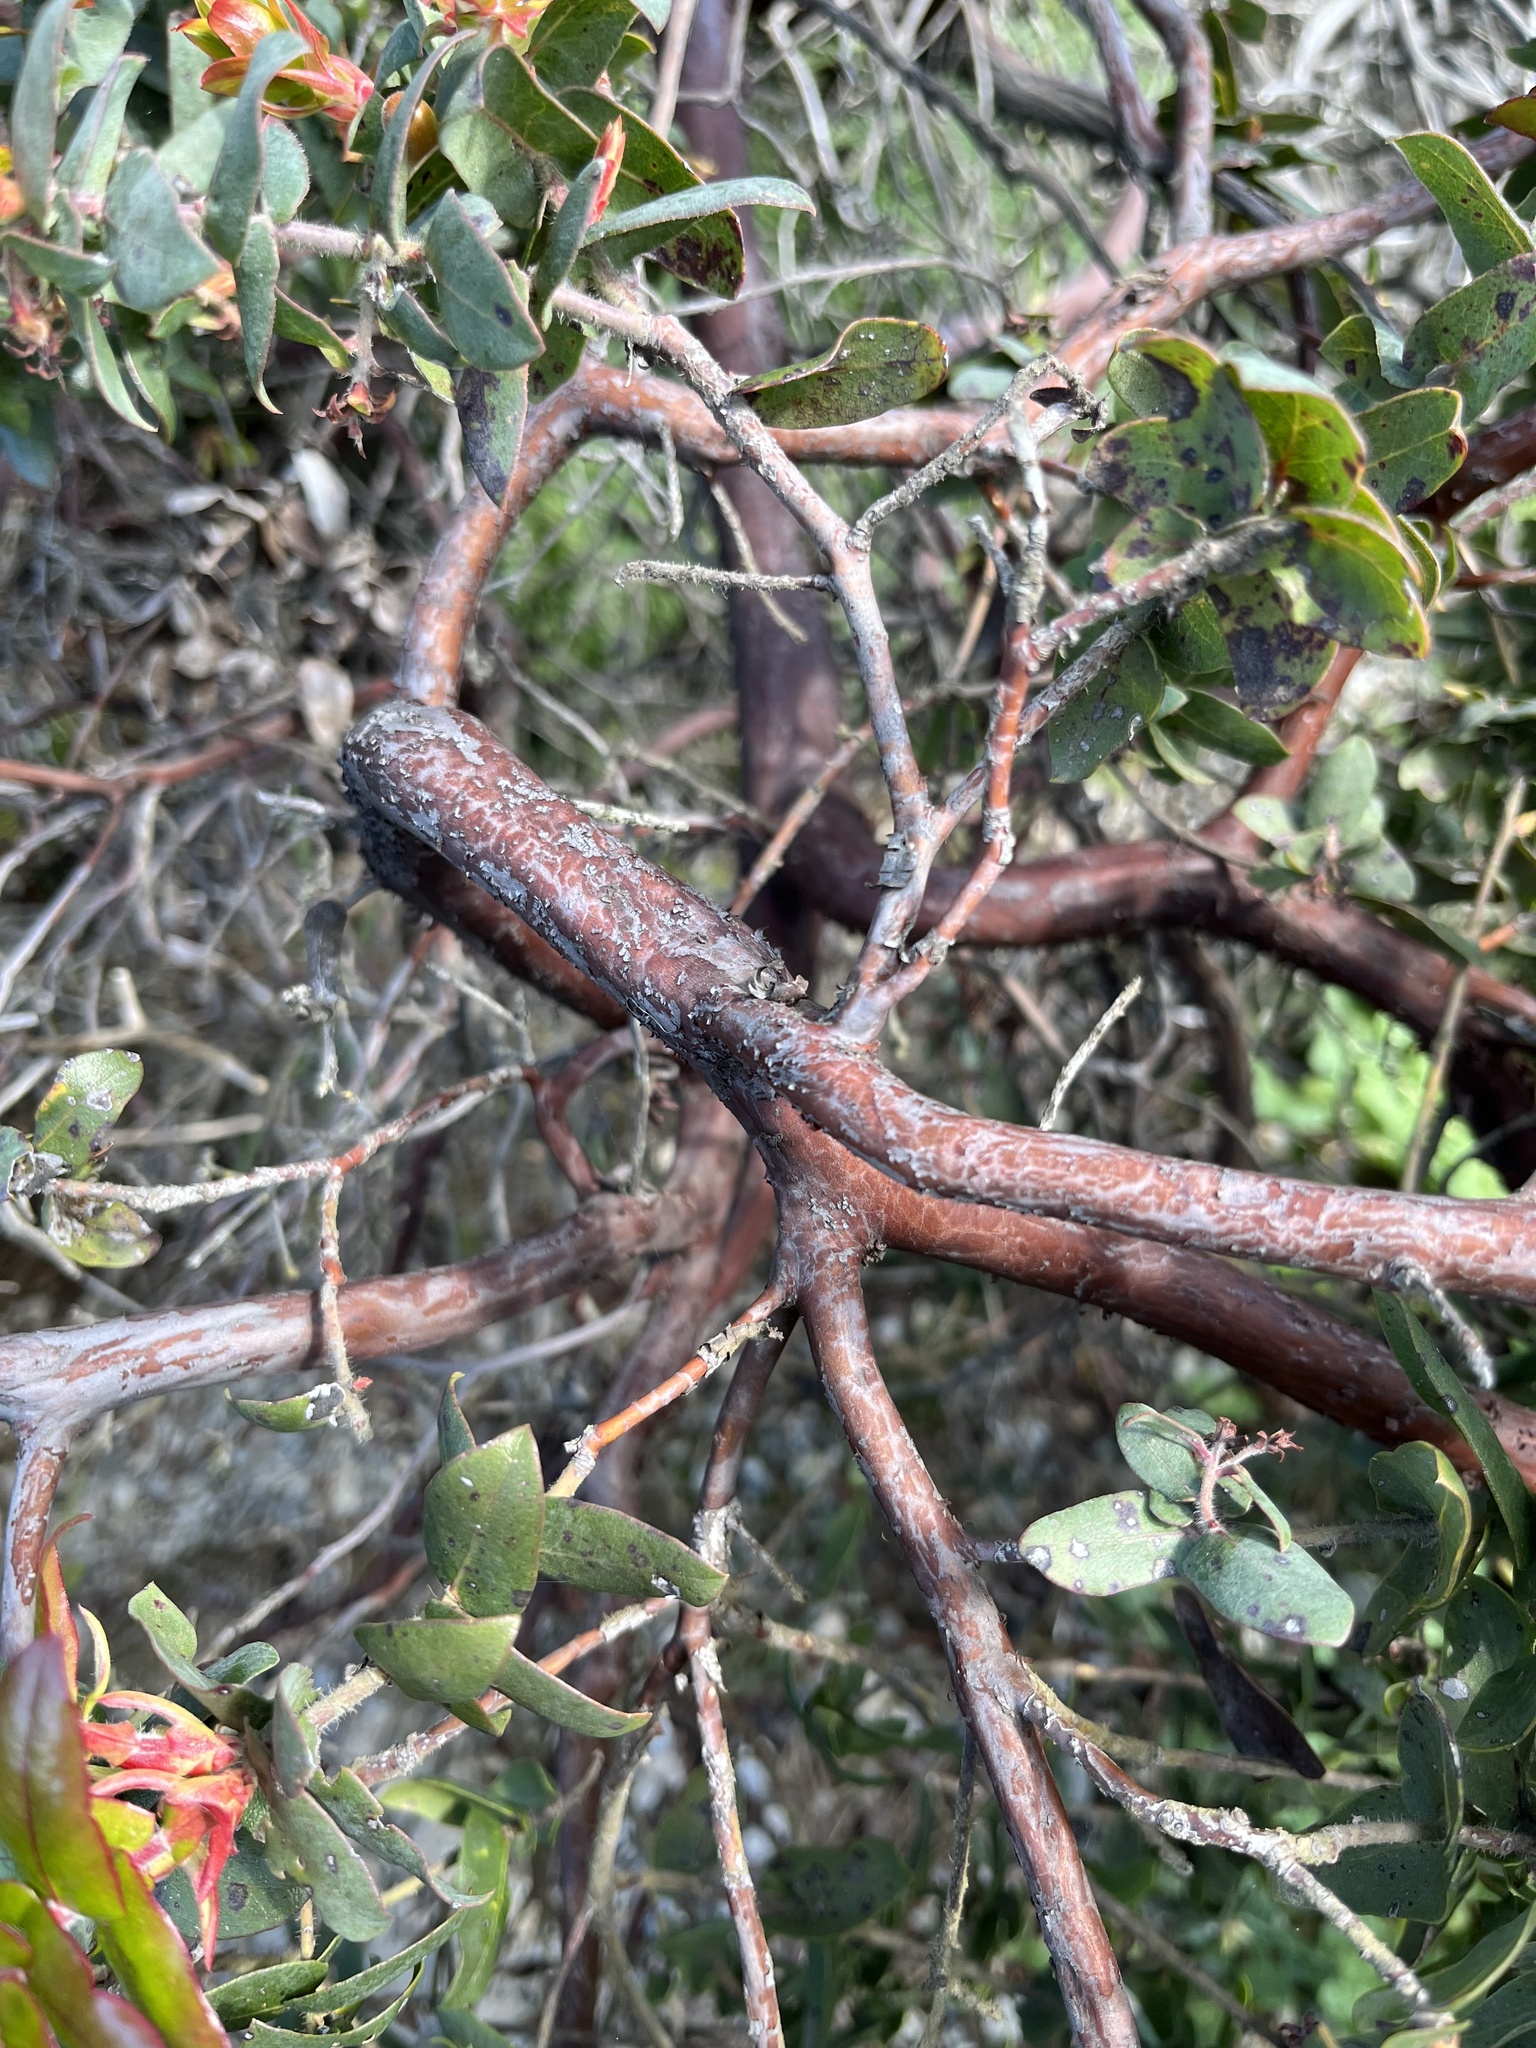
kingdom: Plantae
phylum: Tracheophyta
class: Magnoliopsida
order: Ericales
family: Ericaceae
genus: Arctostaphylos
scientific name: Arctostaphylos pajaroensis
